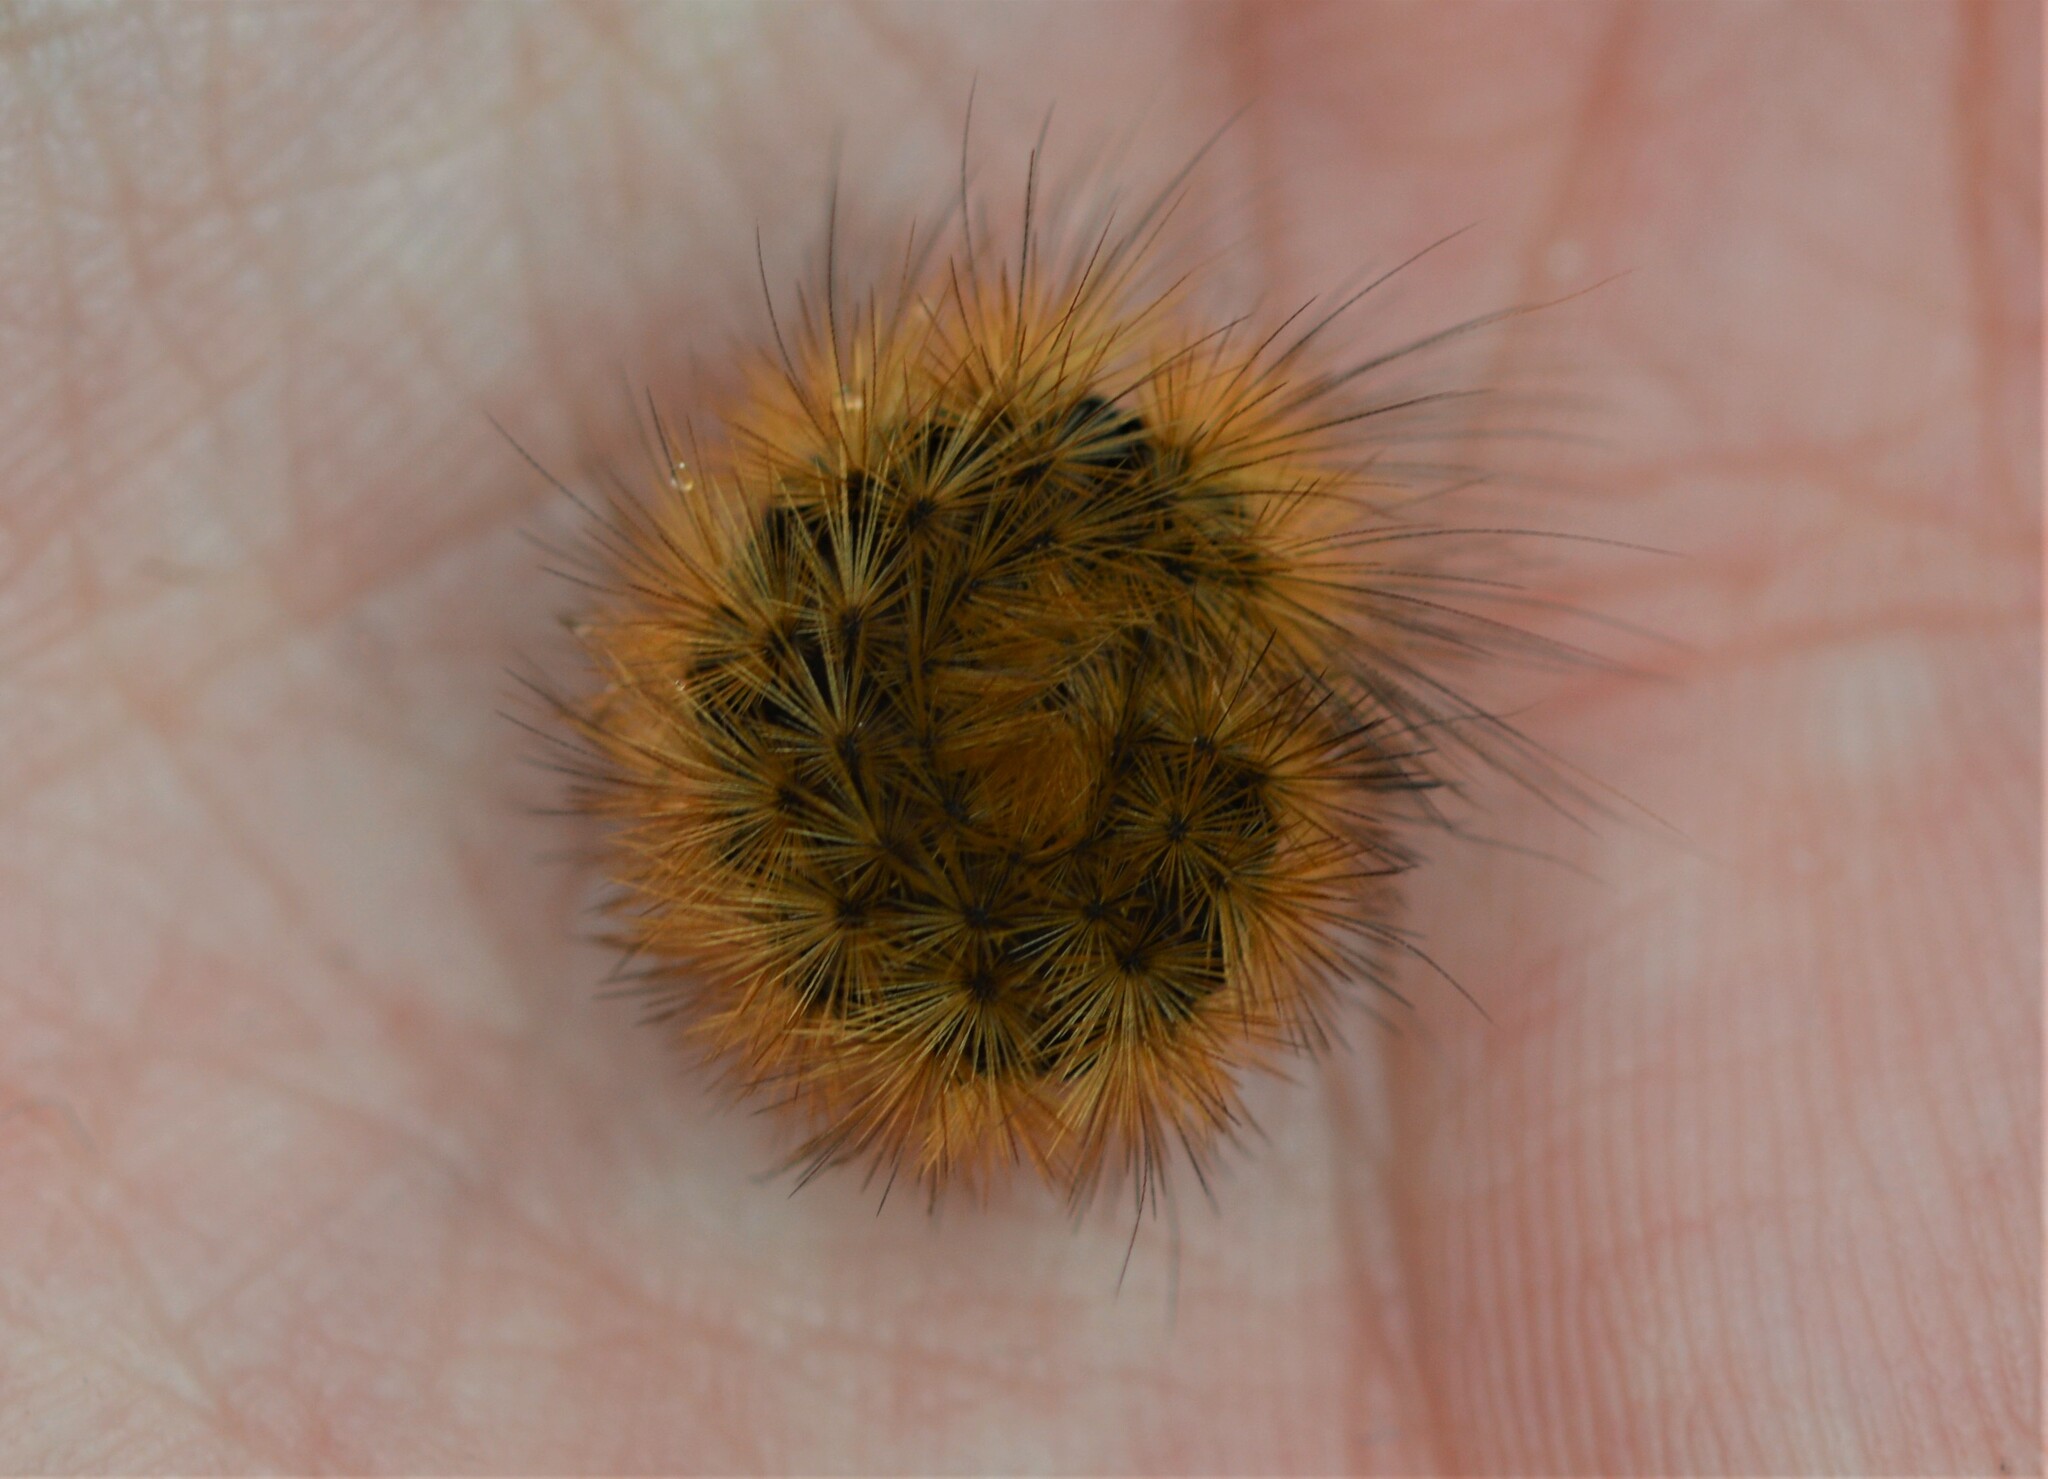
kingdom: Animalia
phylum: Arthropoda
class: Insecta
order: Lepidoptera
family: Erebidae
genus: Phragmatobia
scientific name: Phragmatobia fuliginosa
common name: Ruby tiger
